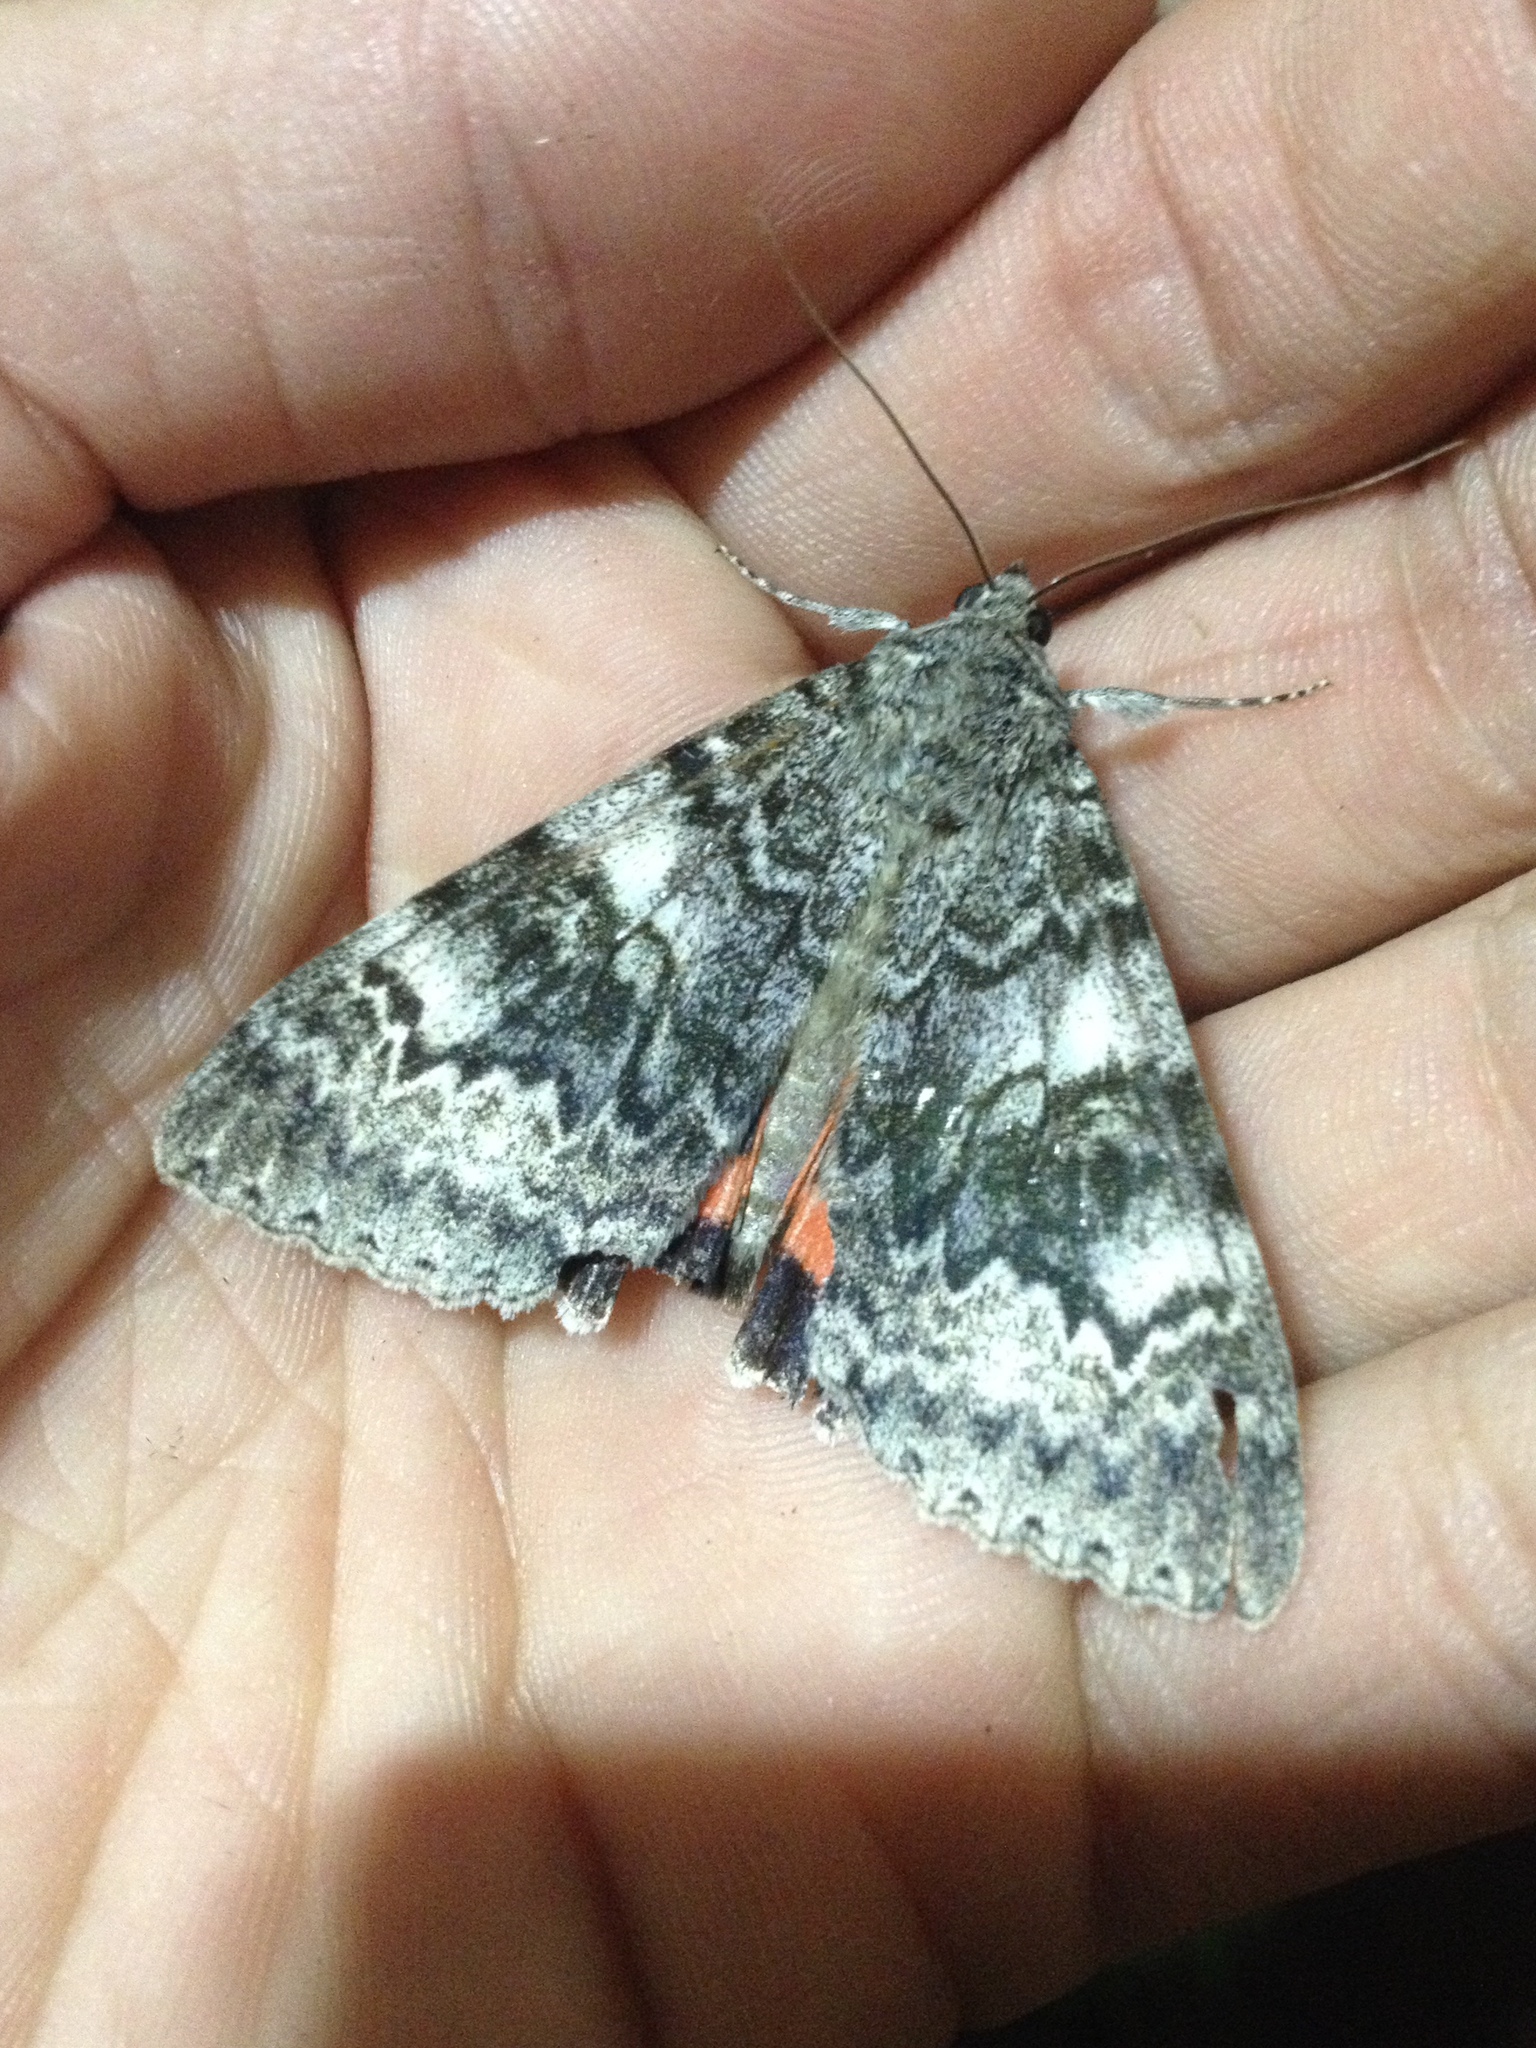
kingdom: Animalia
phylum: Arthropoda
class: Insecta
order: Lepidoptera
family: Erebidae
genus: Catocala
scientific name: Catocala adultera
